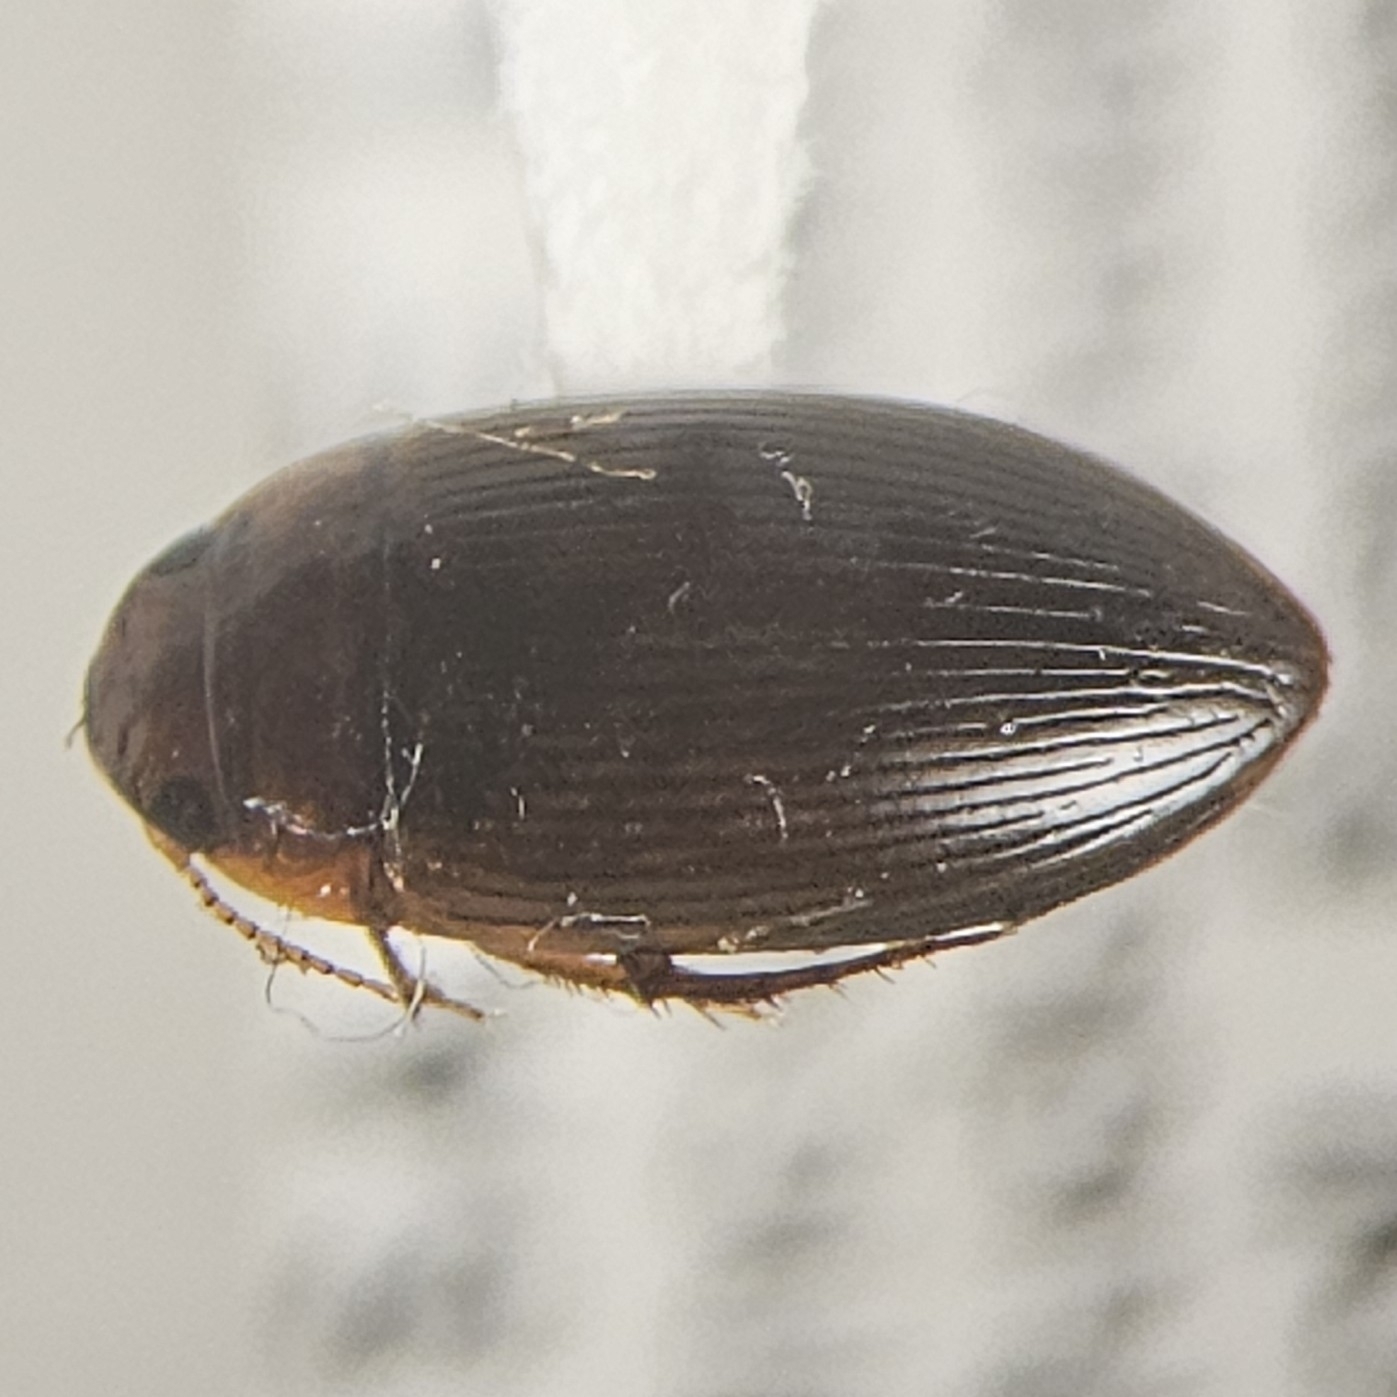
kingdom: Animalia
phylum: Arthropoda
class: Insecta
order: Coleoptera
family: Dytiscidae
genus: Copelatus
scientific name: Copelatus glyphicus
